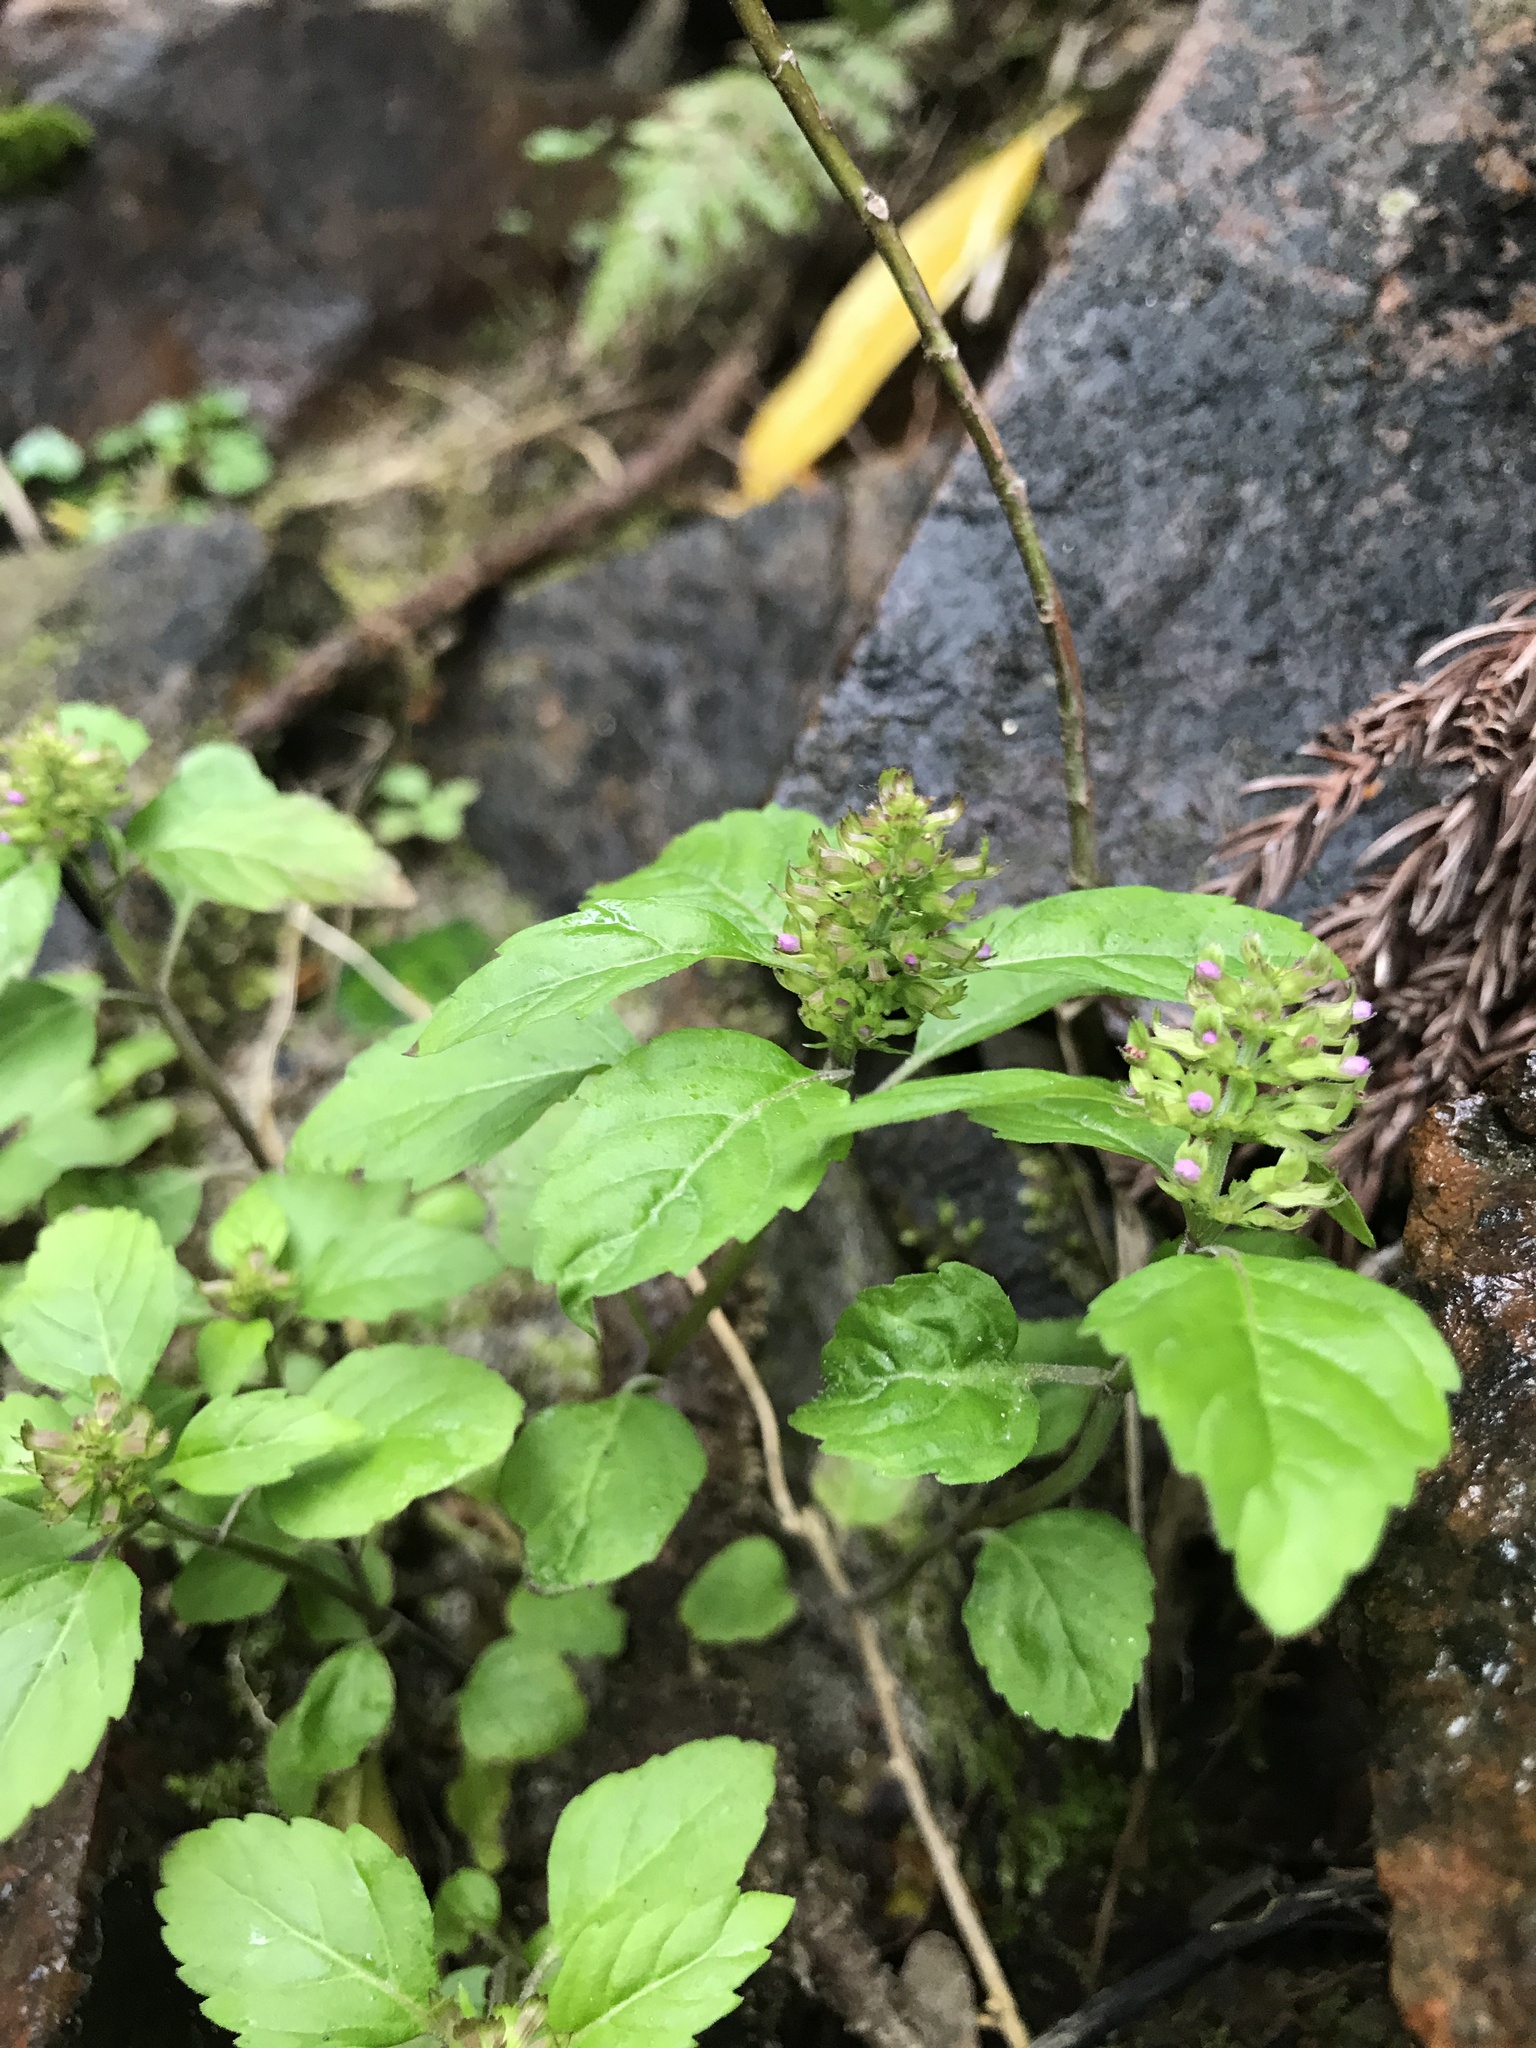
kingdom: Plantae
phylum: Tracheophyta
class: Magnoliopsida
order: Lamiales
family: Lamiaceae
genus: Clinopodium
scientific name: Clinopodium gracile
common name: Slender wild basil
